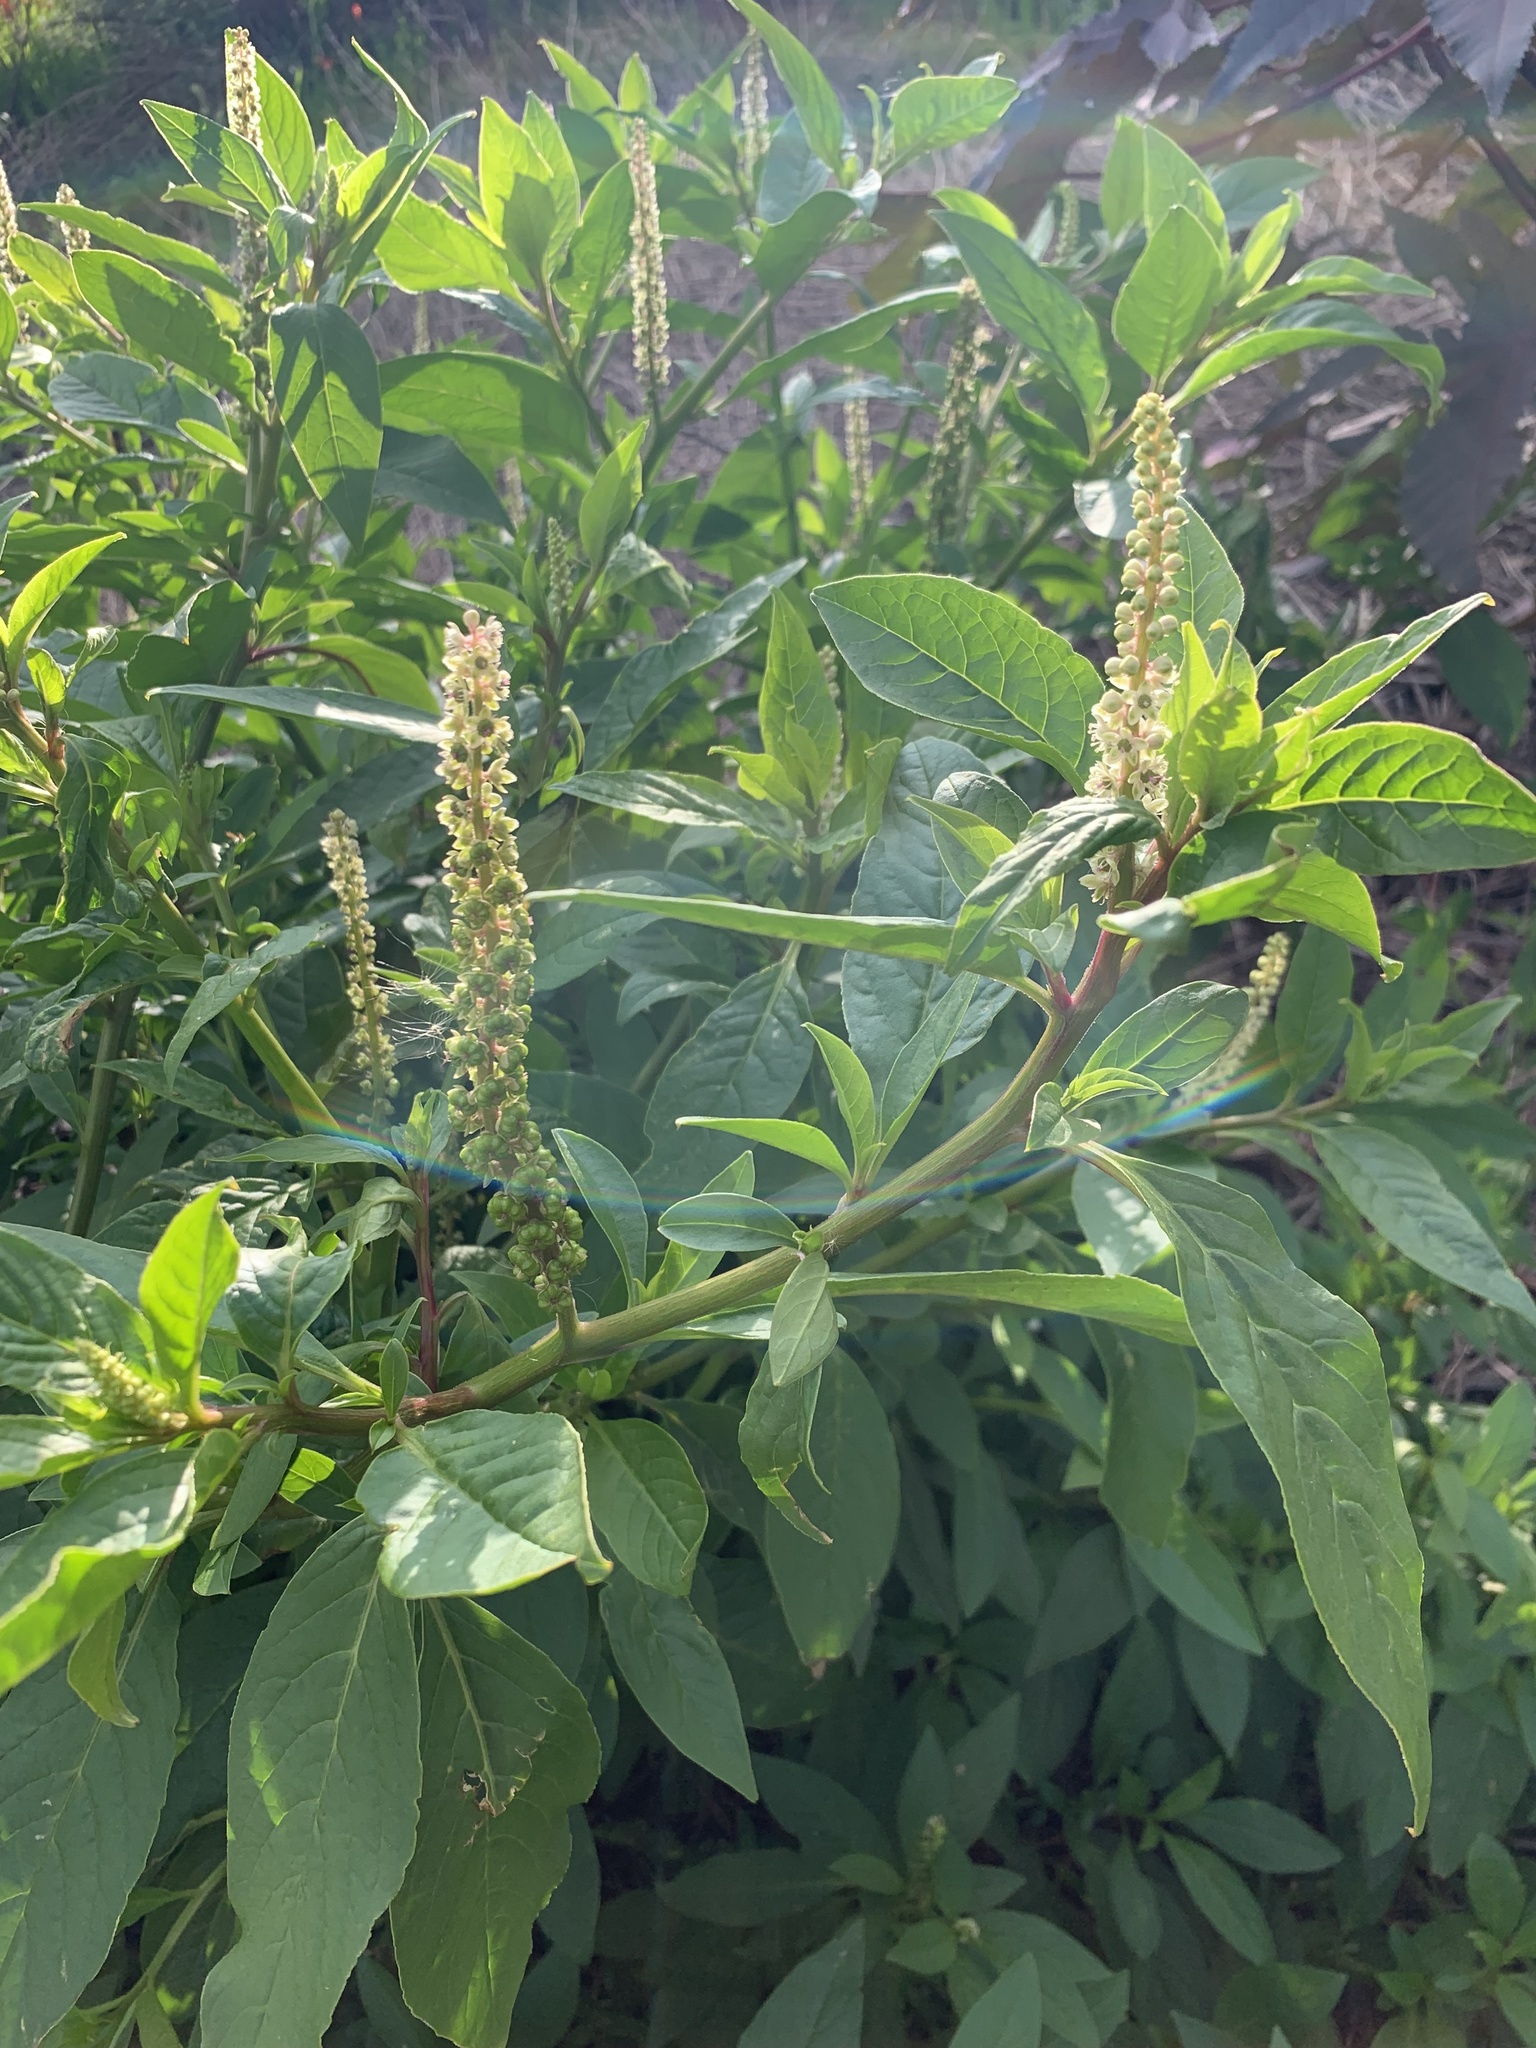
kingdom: Plantae
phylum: Tracheophyta
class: Magnoliopsida
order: Caryophyllales
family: Phytolaccaceae
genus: Phytolacca
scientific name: Phytolacca icosandra
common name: Button pokeweed
